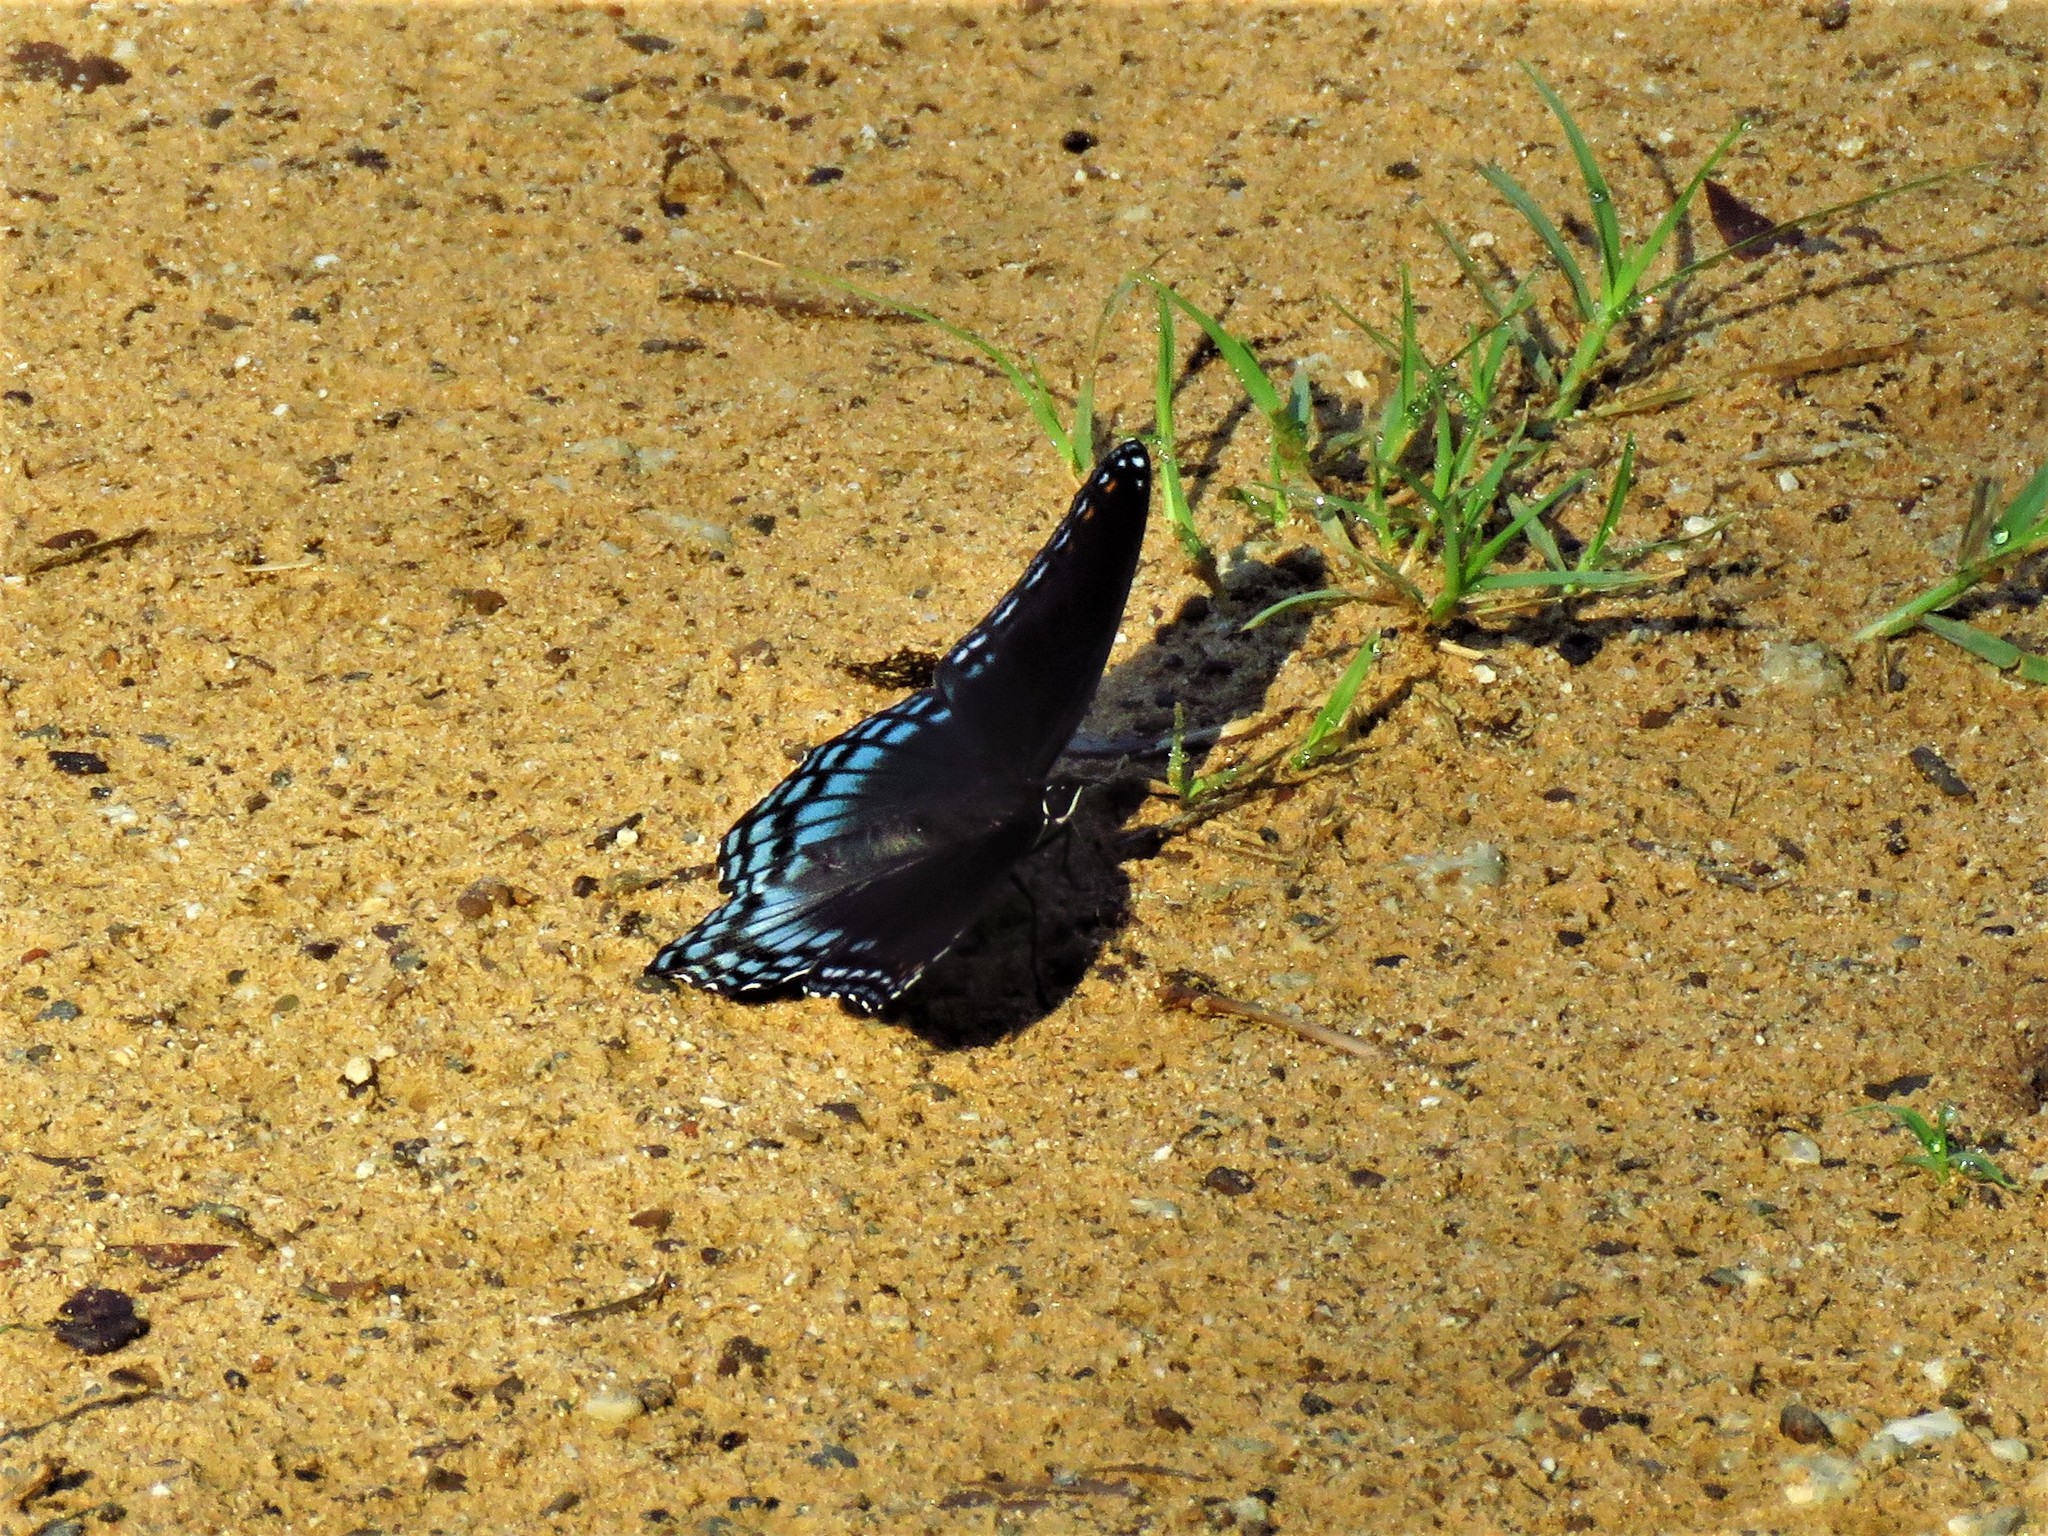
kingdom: Animalia
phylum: Arthropoda
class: Insecta
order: Lepidoptera
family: Nymphalidae
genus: Limenitis
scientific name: Limenitis arthemis
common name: Red-spotted admiral
